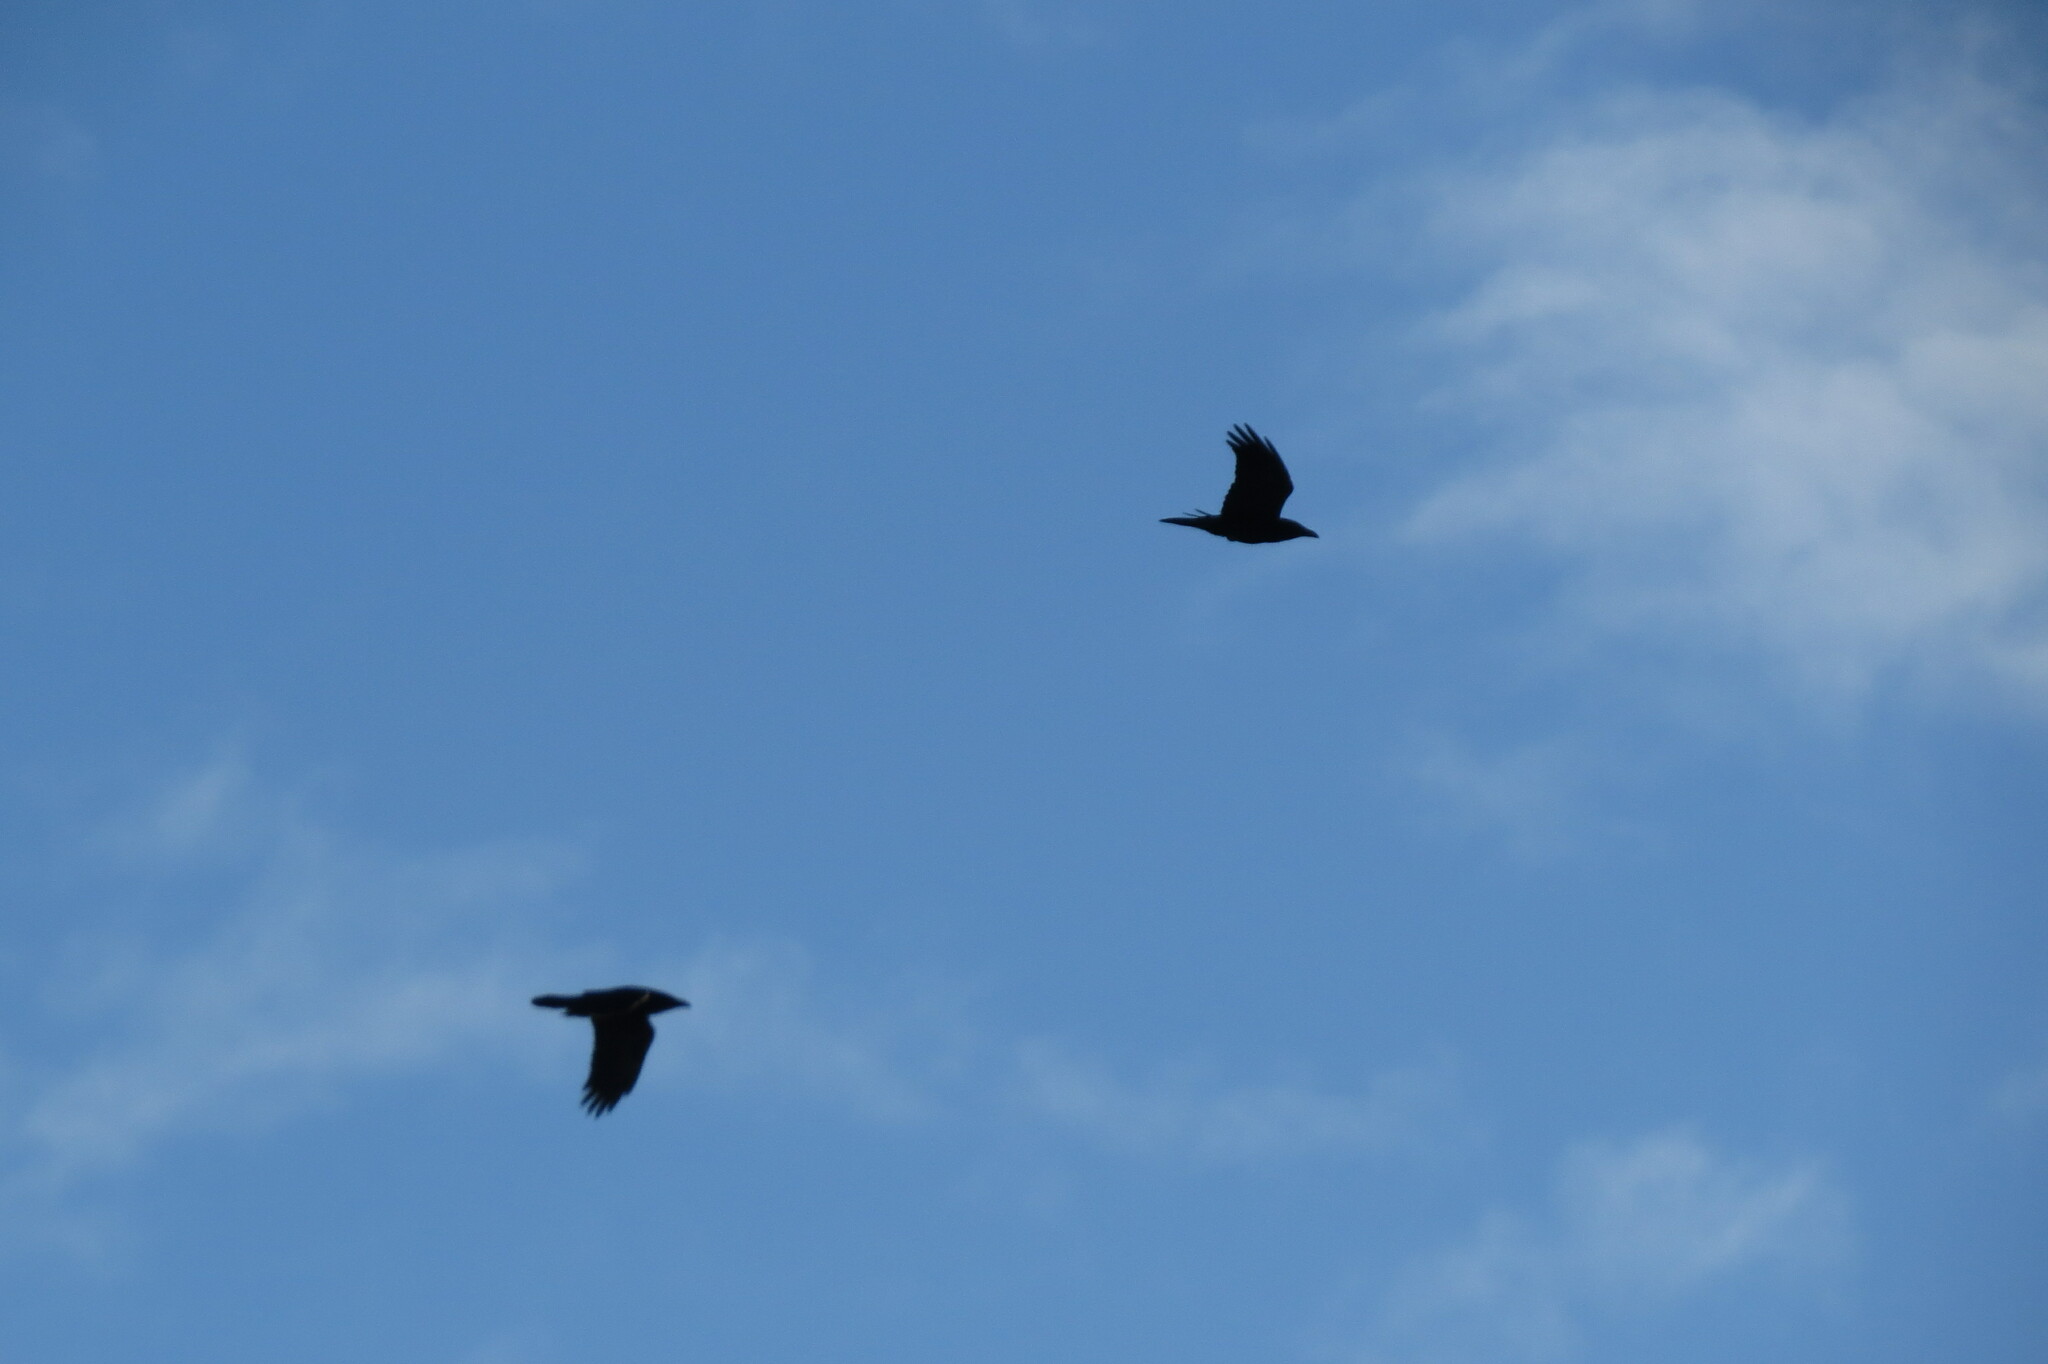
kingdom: Animalia
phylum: Chordata
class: Aves
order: Passeriformes
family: Corvidae
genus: Corvus
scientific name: Corvus corax
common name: Common raven
